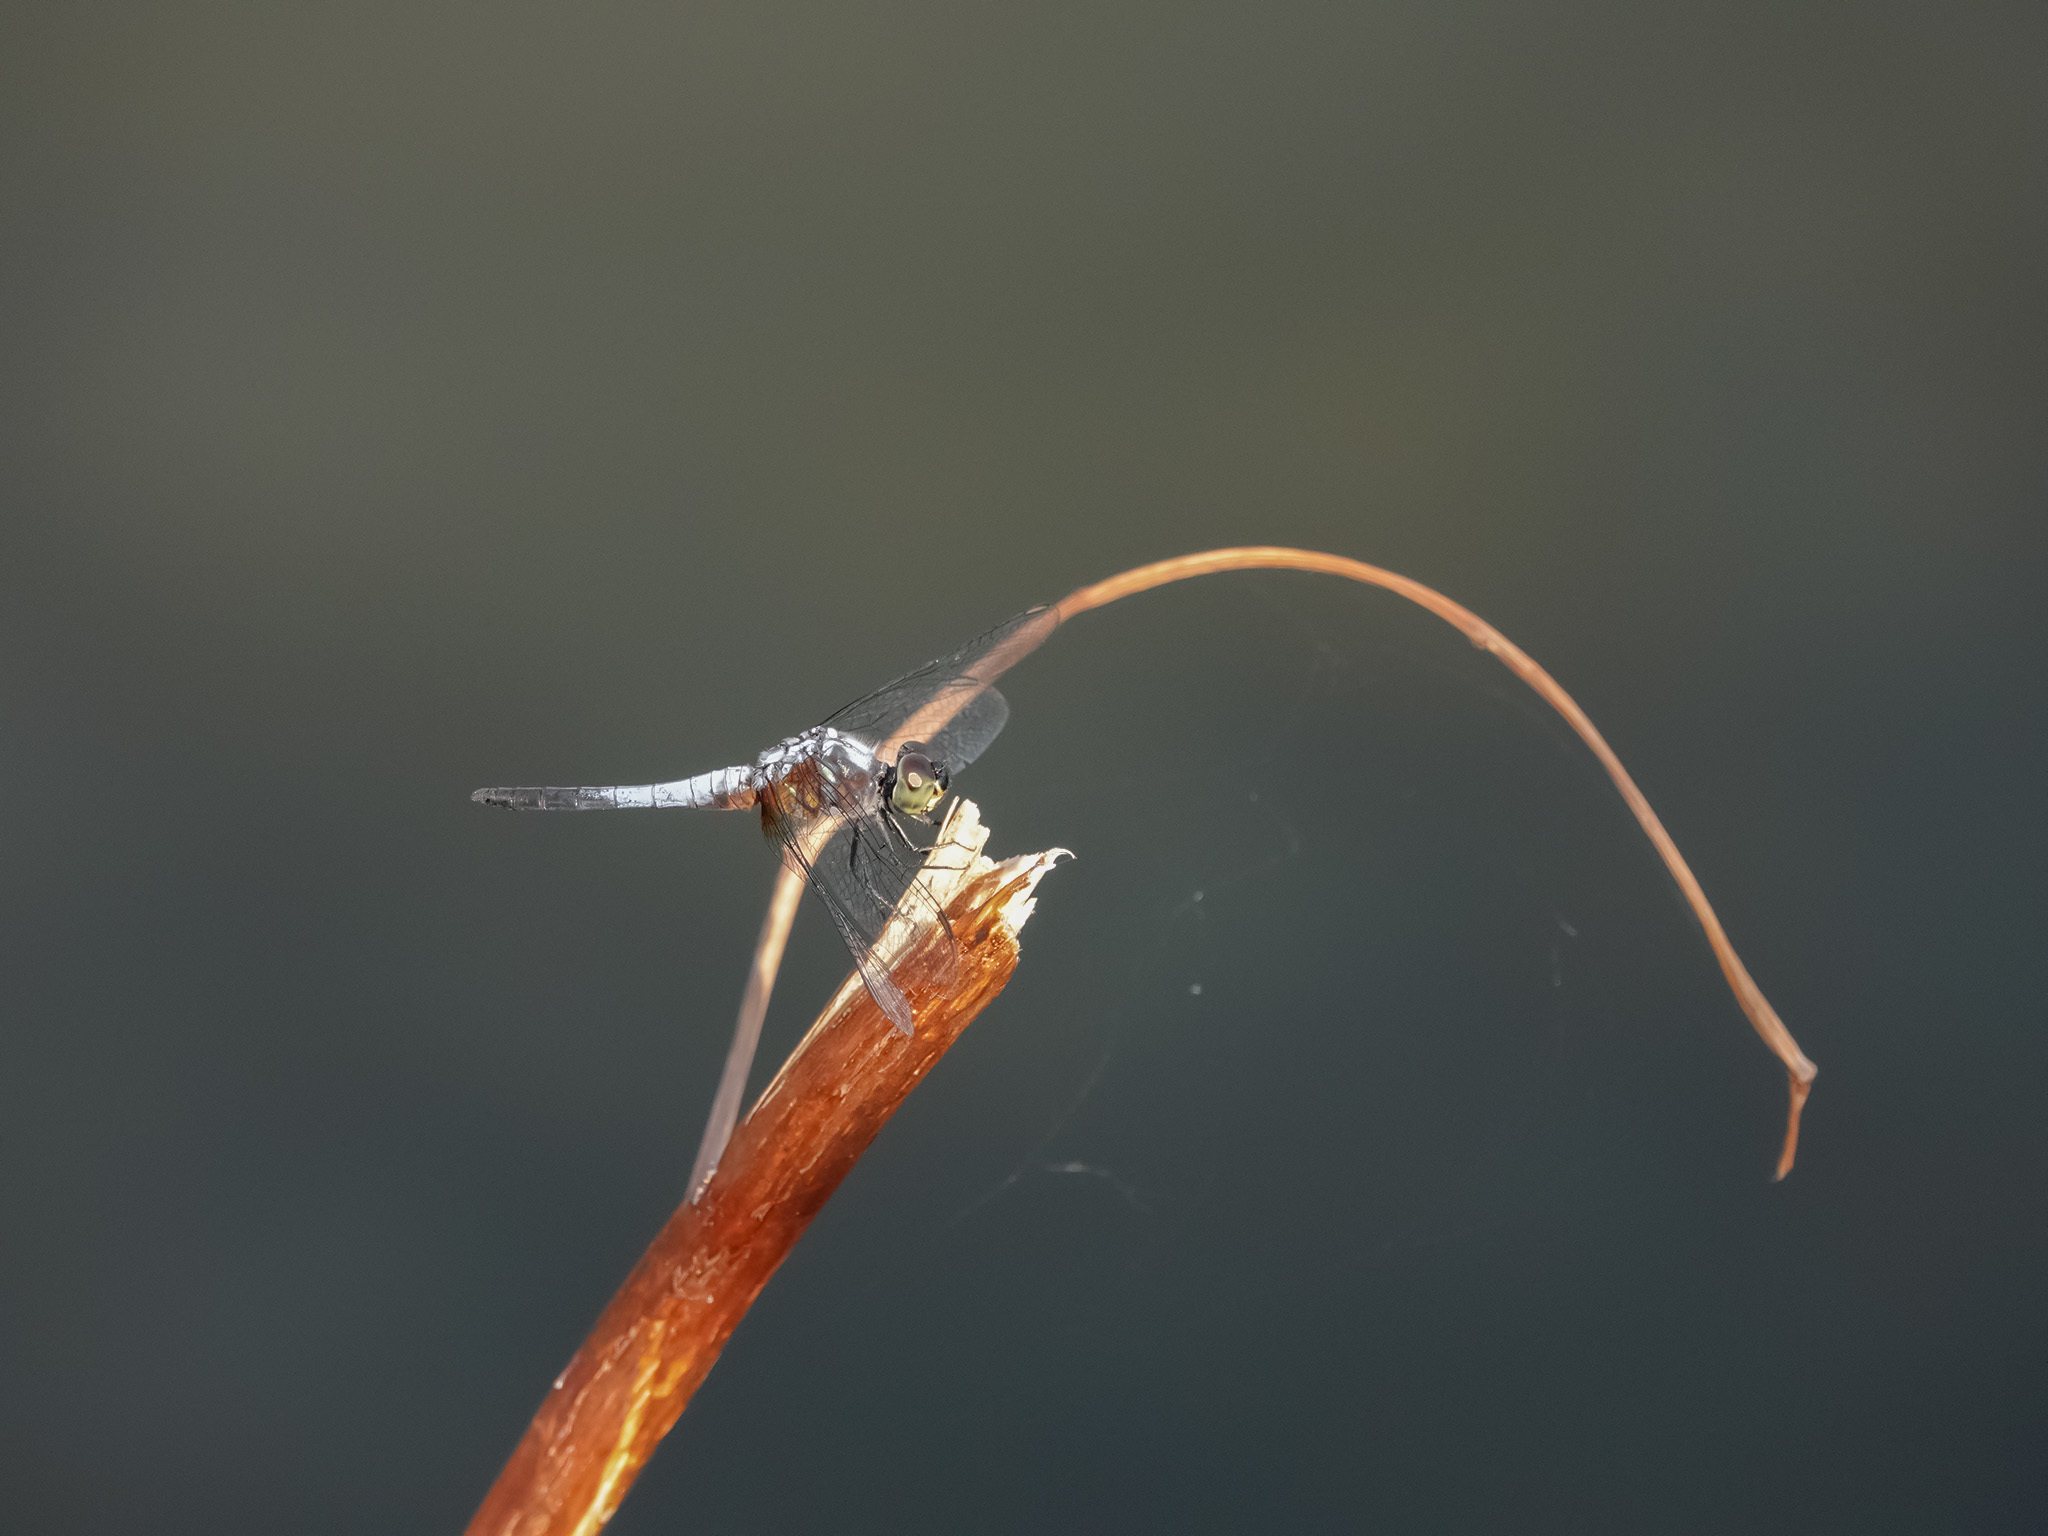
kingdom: Animalia
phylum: Arthropoda
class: Insecta
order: Odonata
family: Libellulidae
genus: Brachydiplax
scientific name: Brachydiplax chalybea
